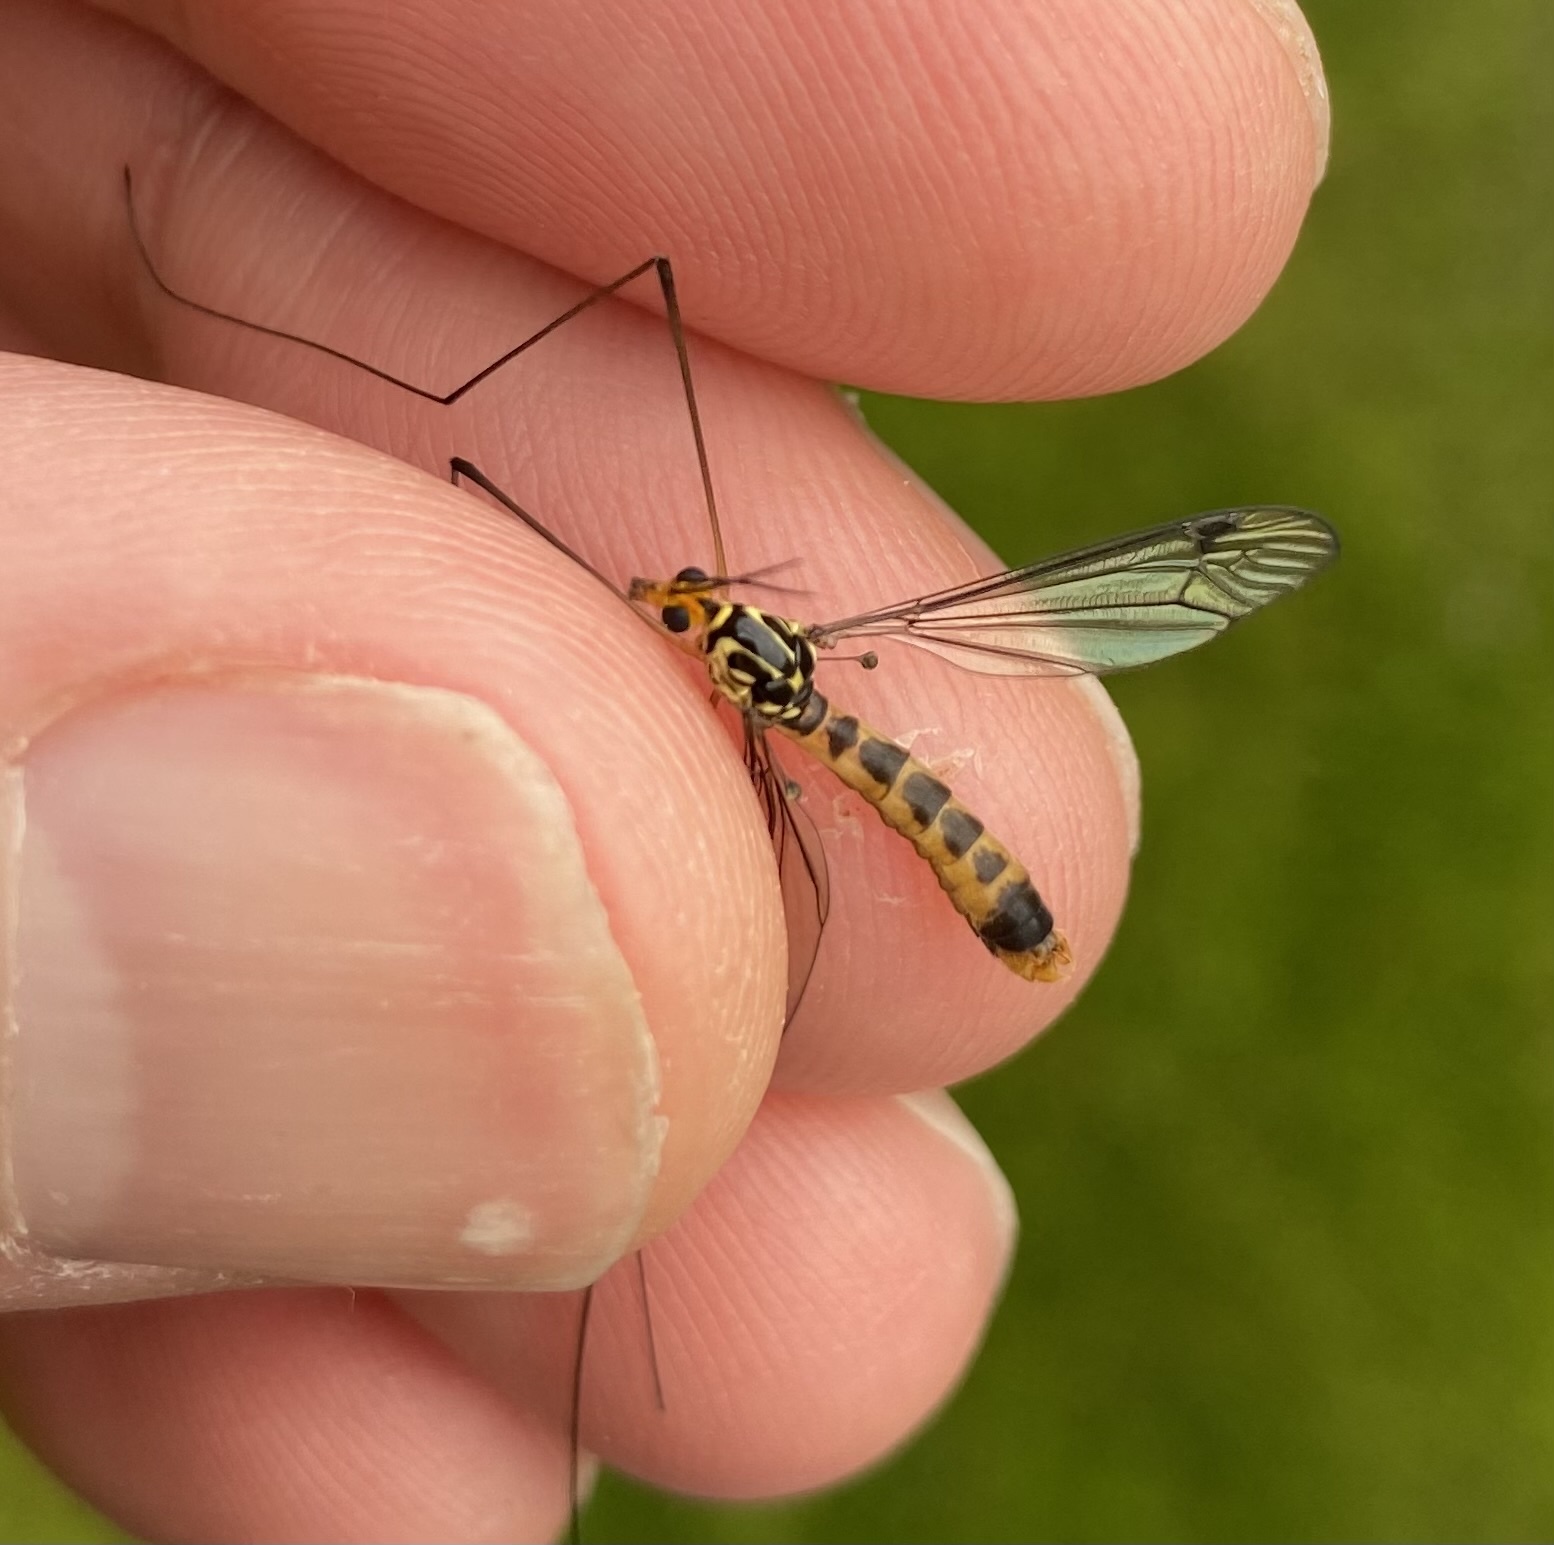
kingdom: Animalia
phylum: Arthropoda
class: Insecta
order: Diptera
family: Tipulidae
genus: Nephrotoma
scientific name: Nephrotoma flavipalpis
